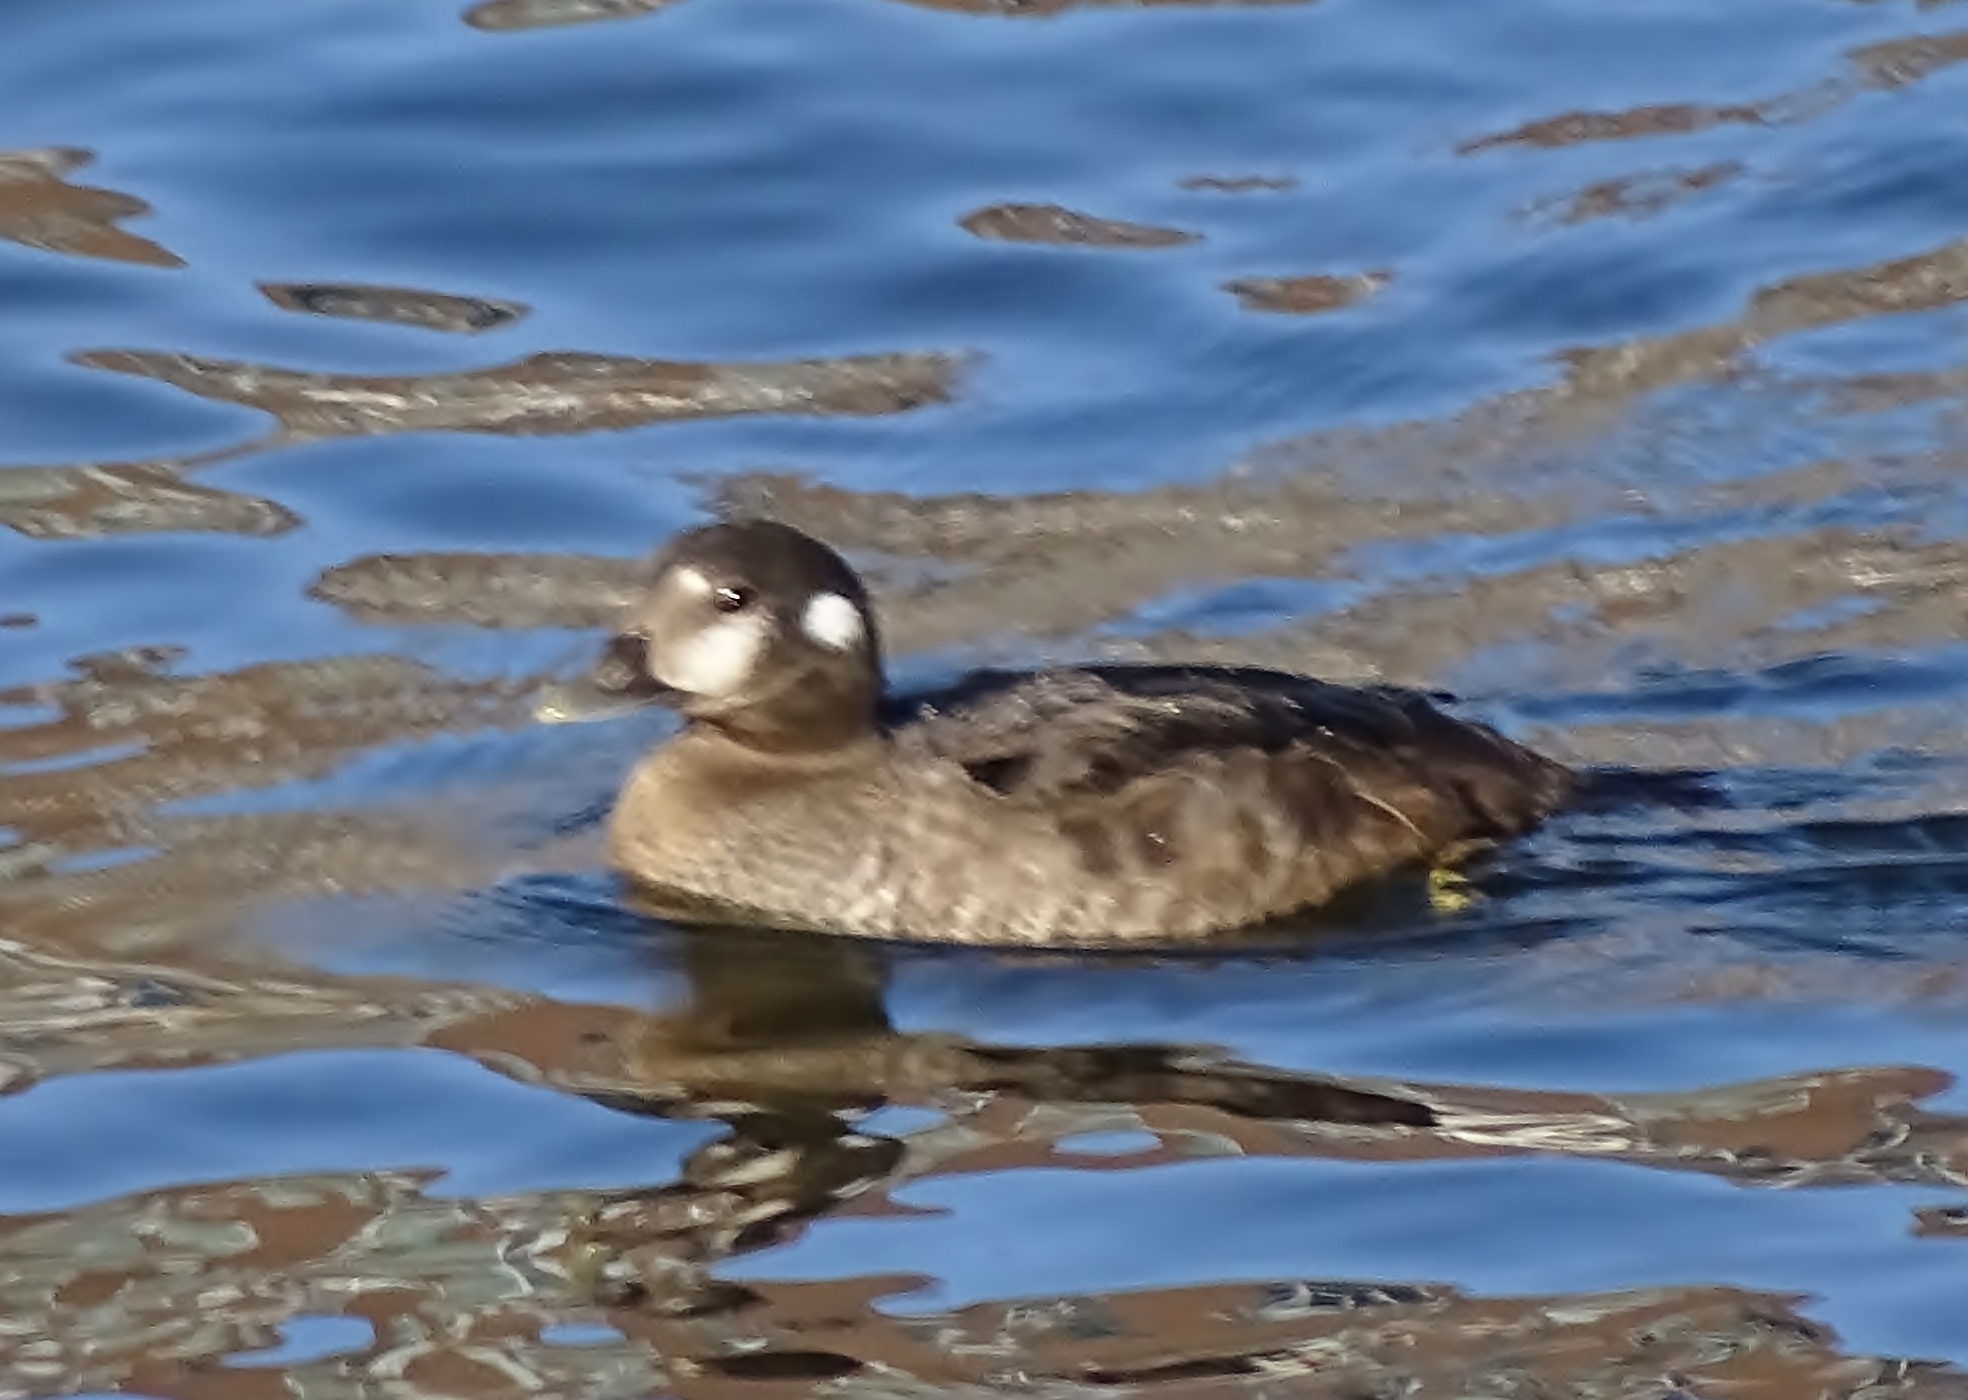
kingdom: Animalia
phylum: Chordata
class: Aves
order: Anseriformes
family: Anatidae
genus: Histrionicus
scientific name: Histrionicus histrionicus
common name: Harlequin duck
